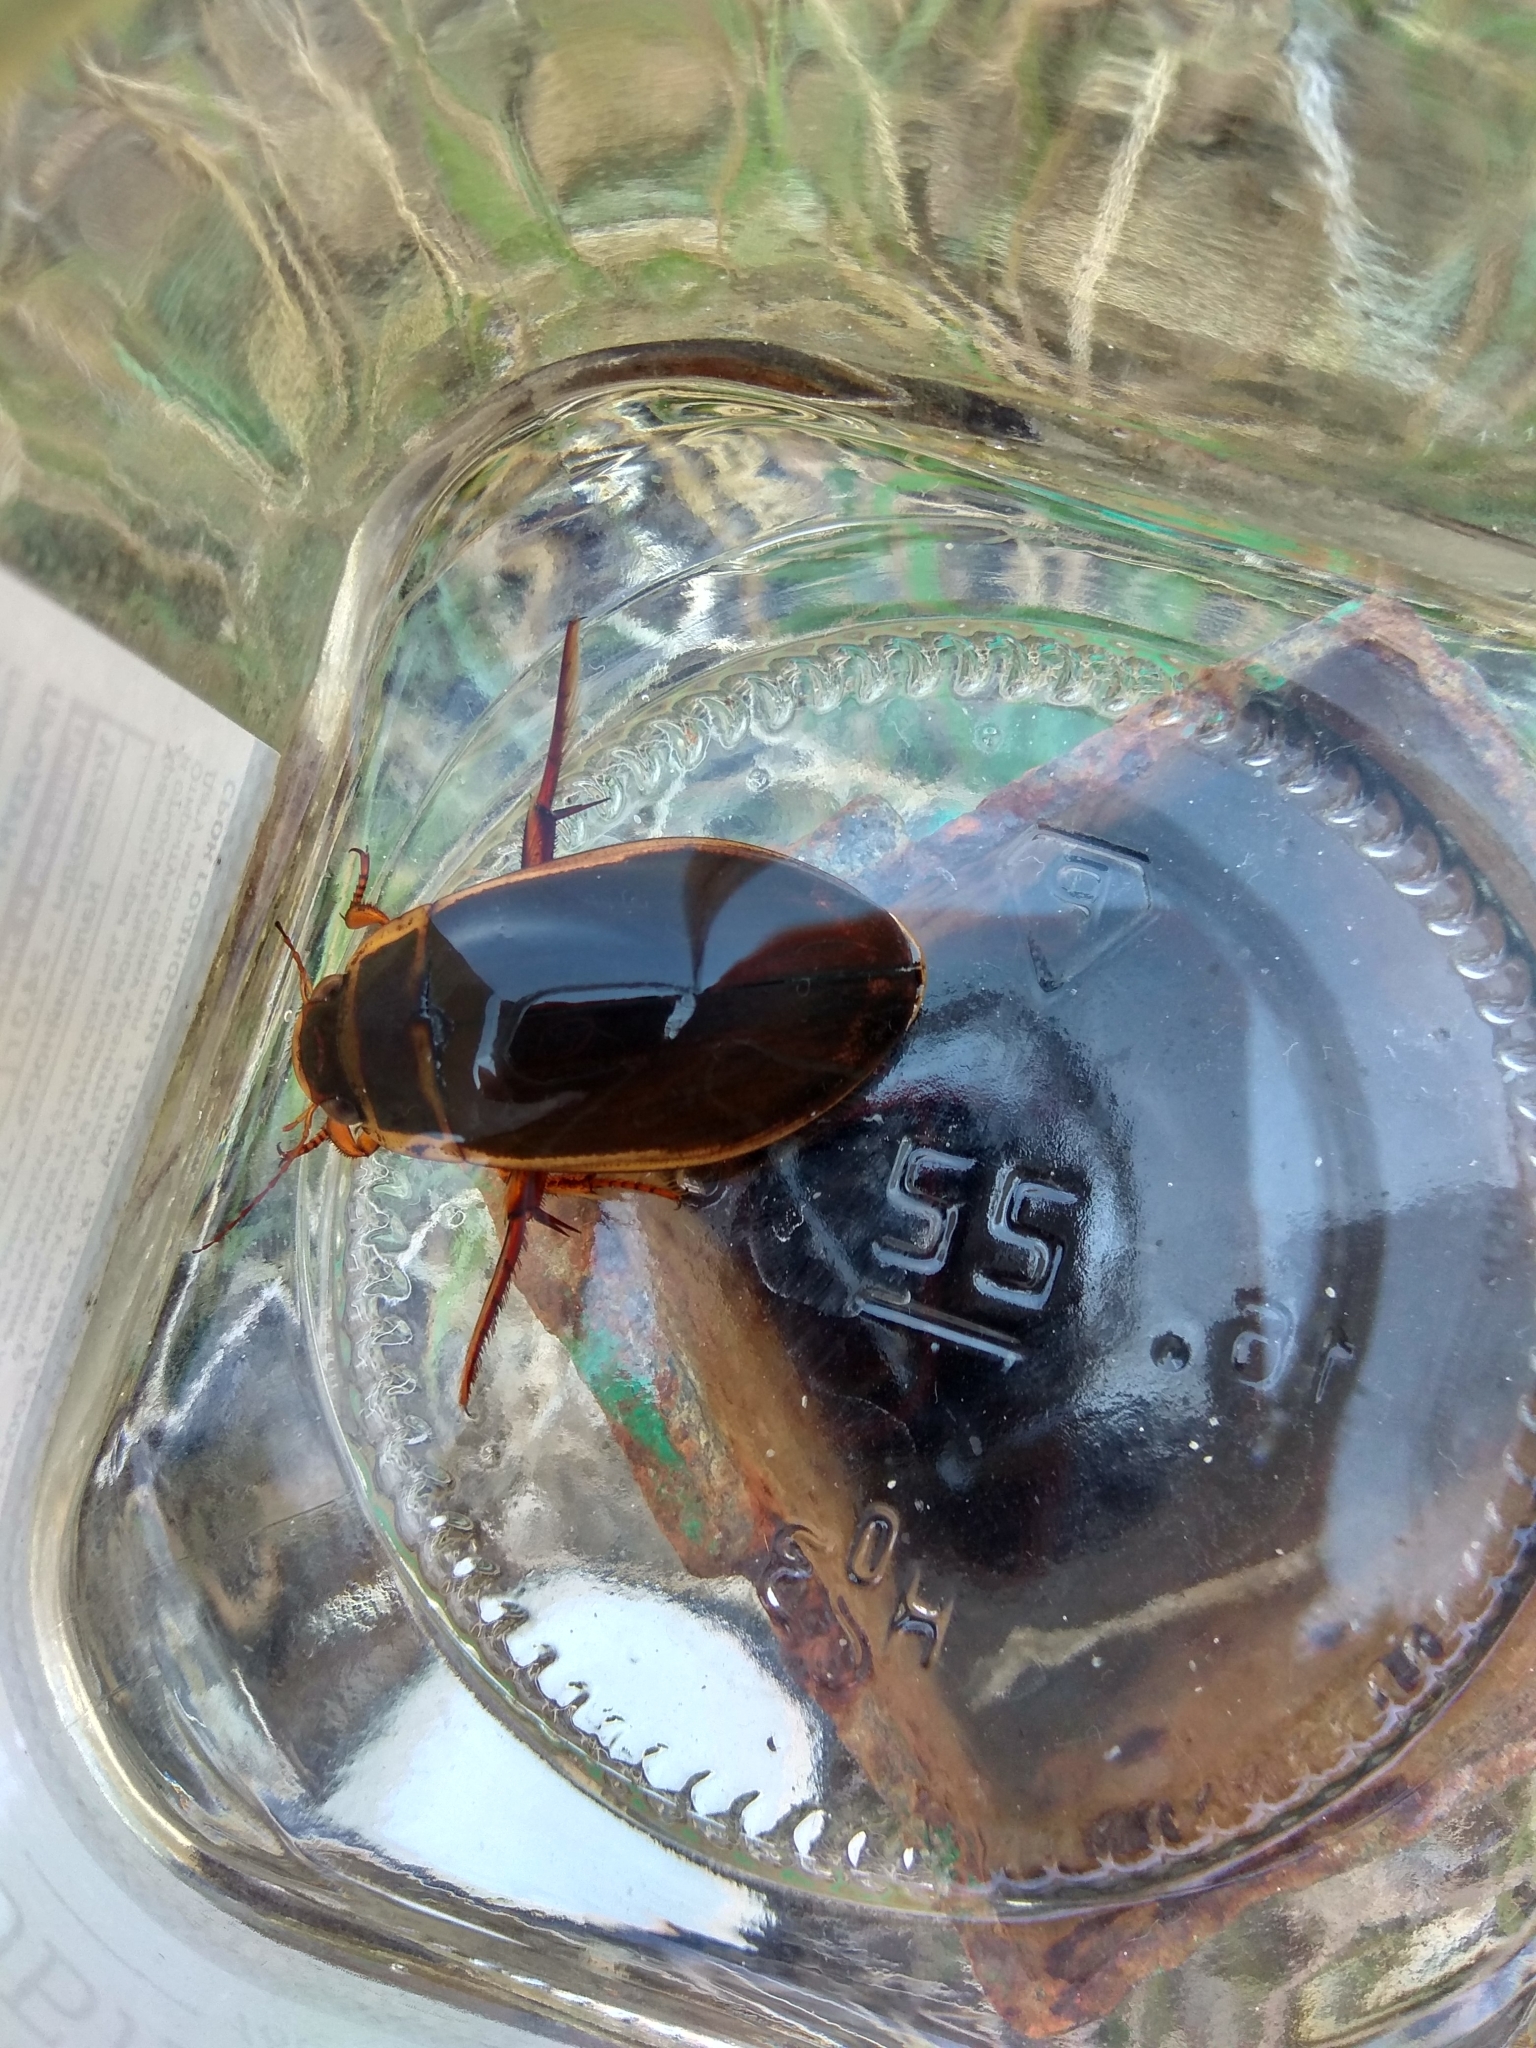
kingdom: Animalia
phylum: Arthropoda
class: Insecta
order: Coleoptera
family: Dytiscidae
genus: Dytiscus
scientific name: Dytiscus marginalis
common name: Great water beetle
